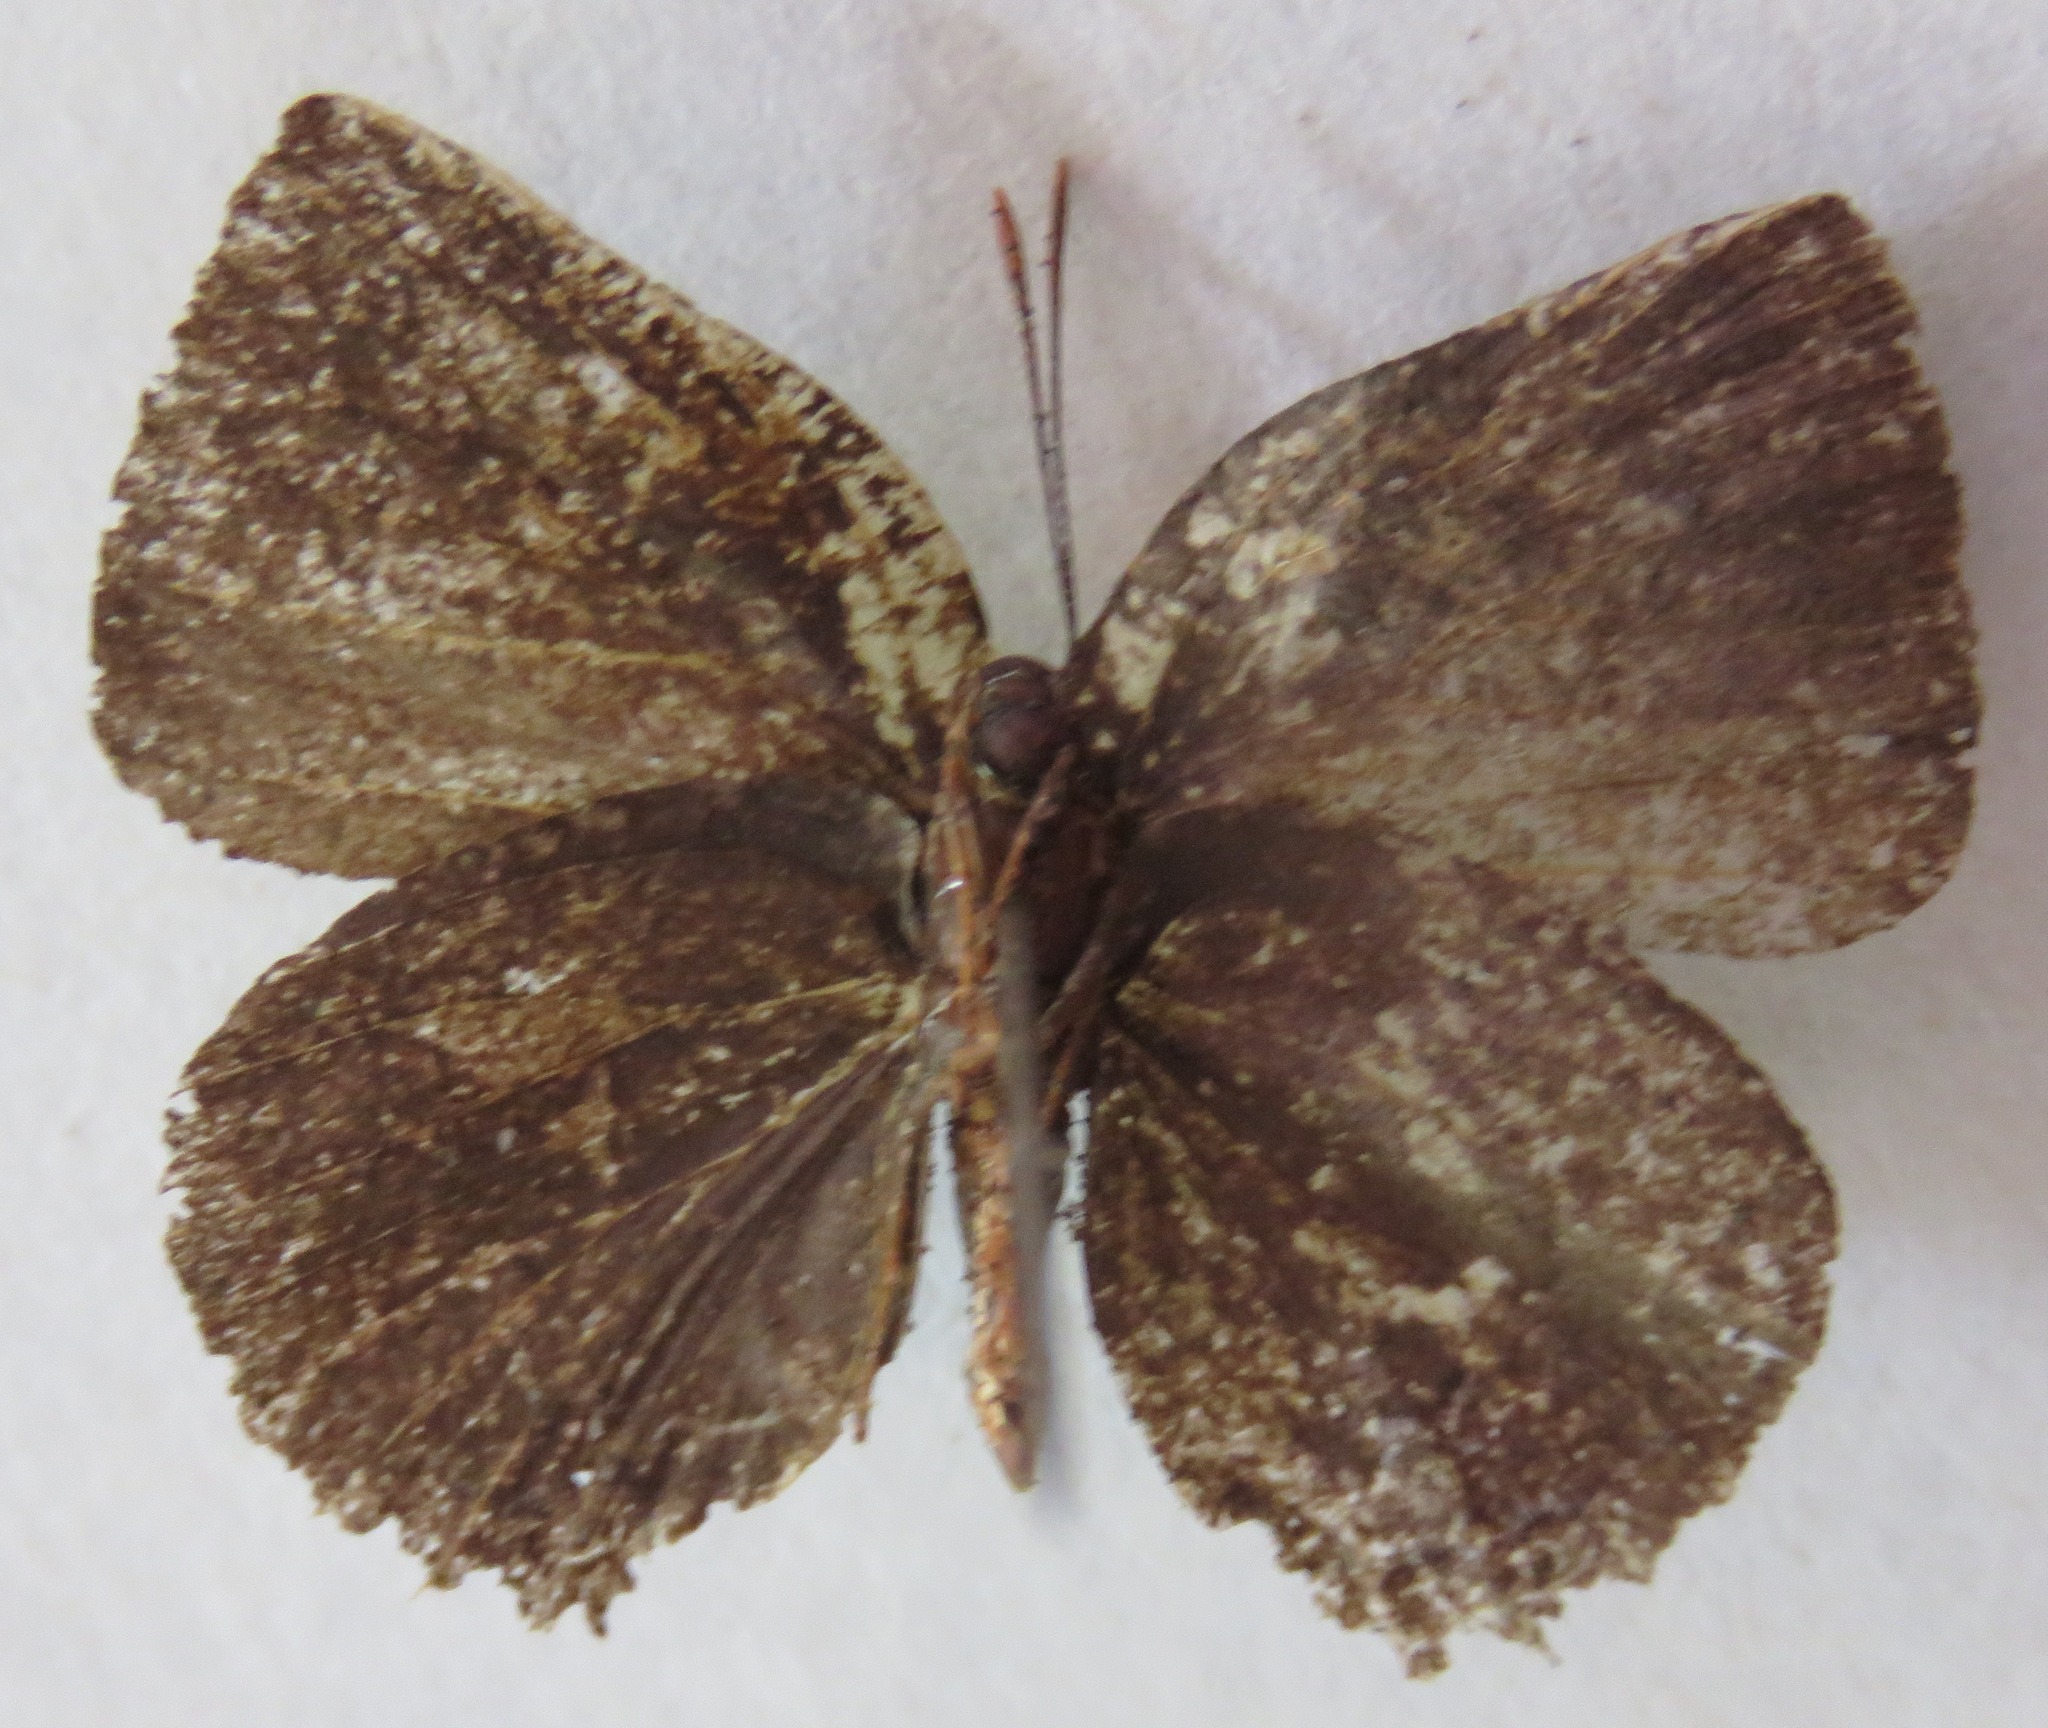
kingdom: Animalia
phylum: Arthropoda
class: Insecta
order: Lepidoptera
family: Lycaenidae
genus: Panthiades
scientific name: Panthiades bitias
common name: Bitias hairstreak
